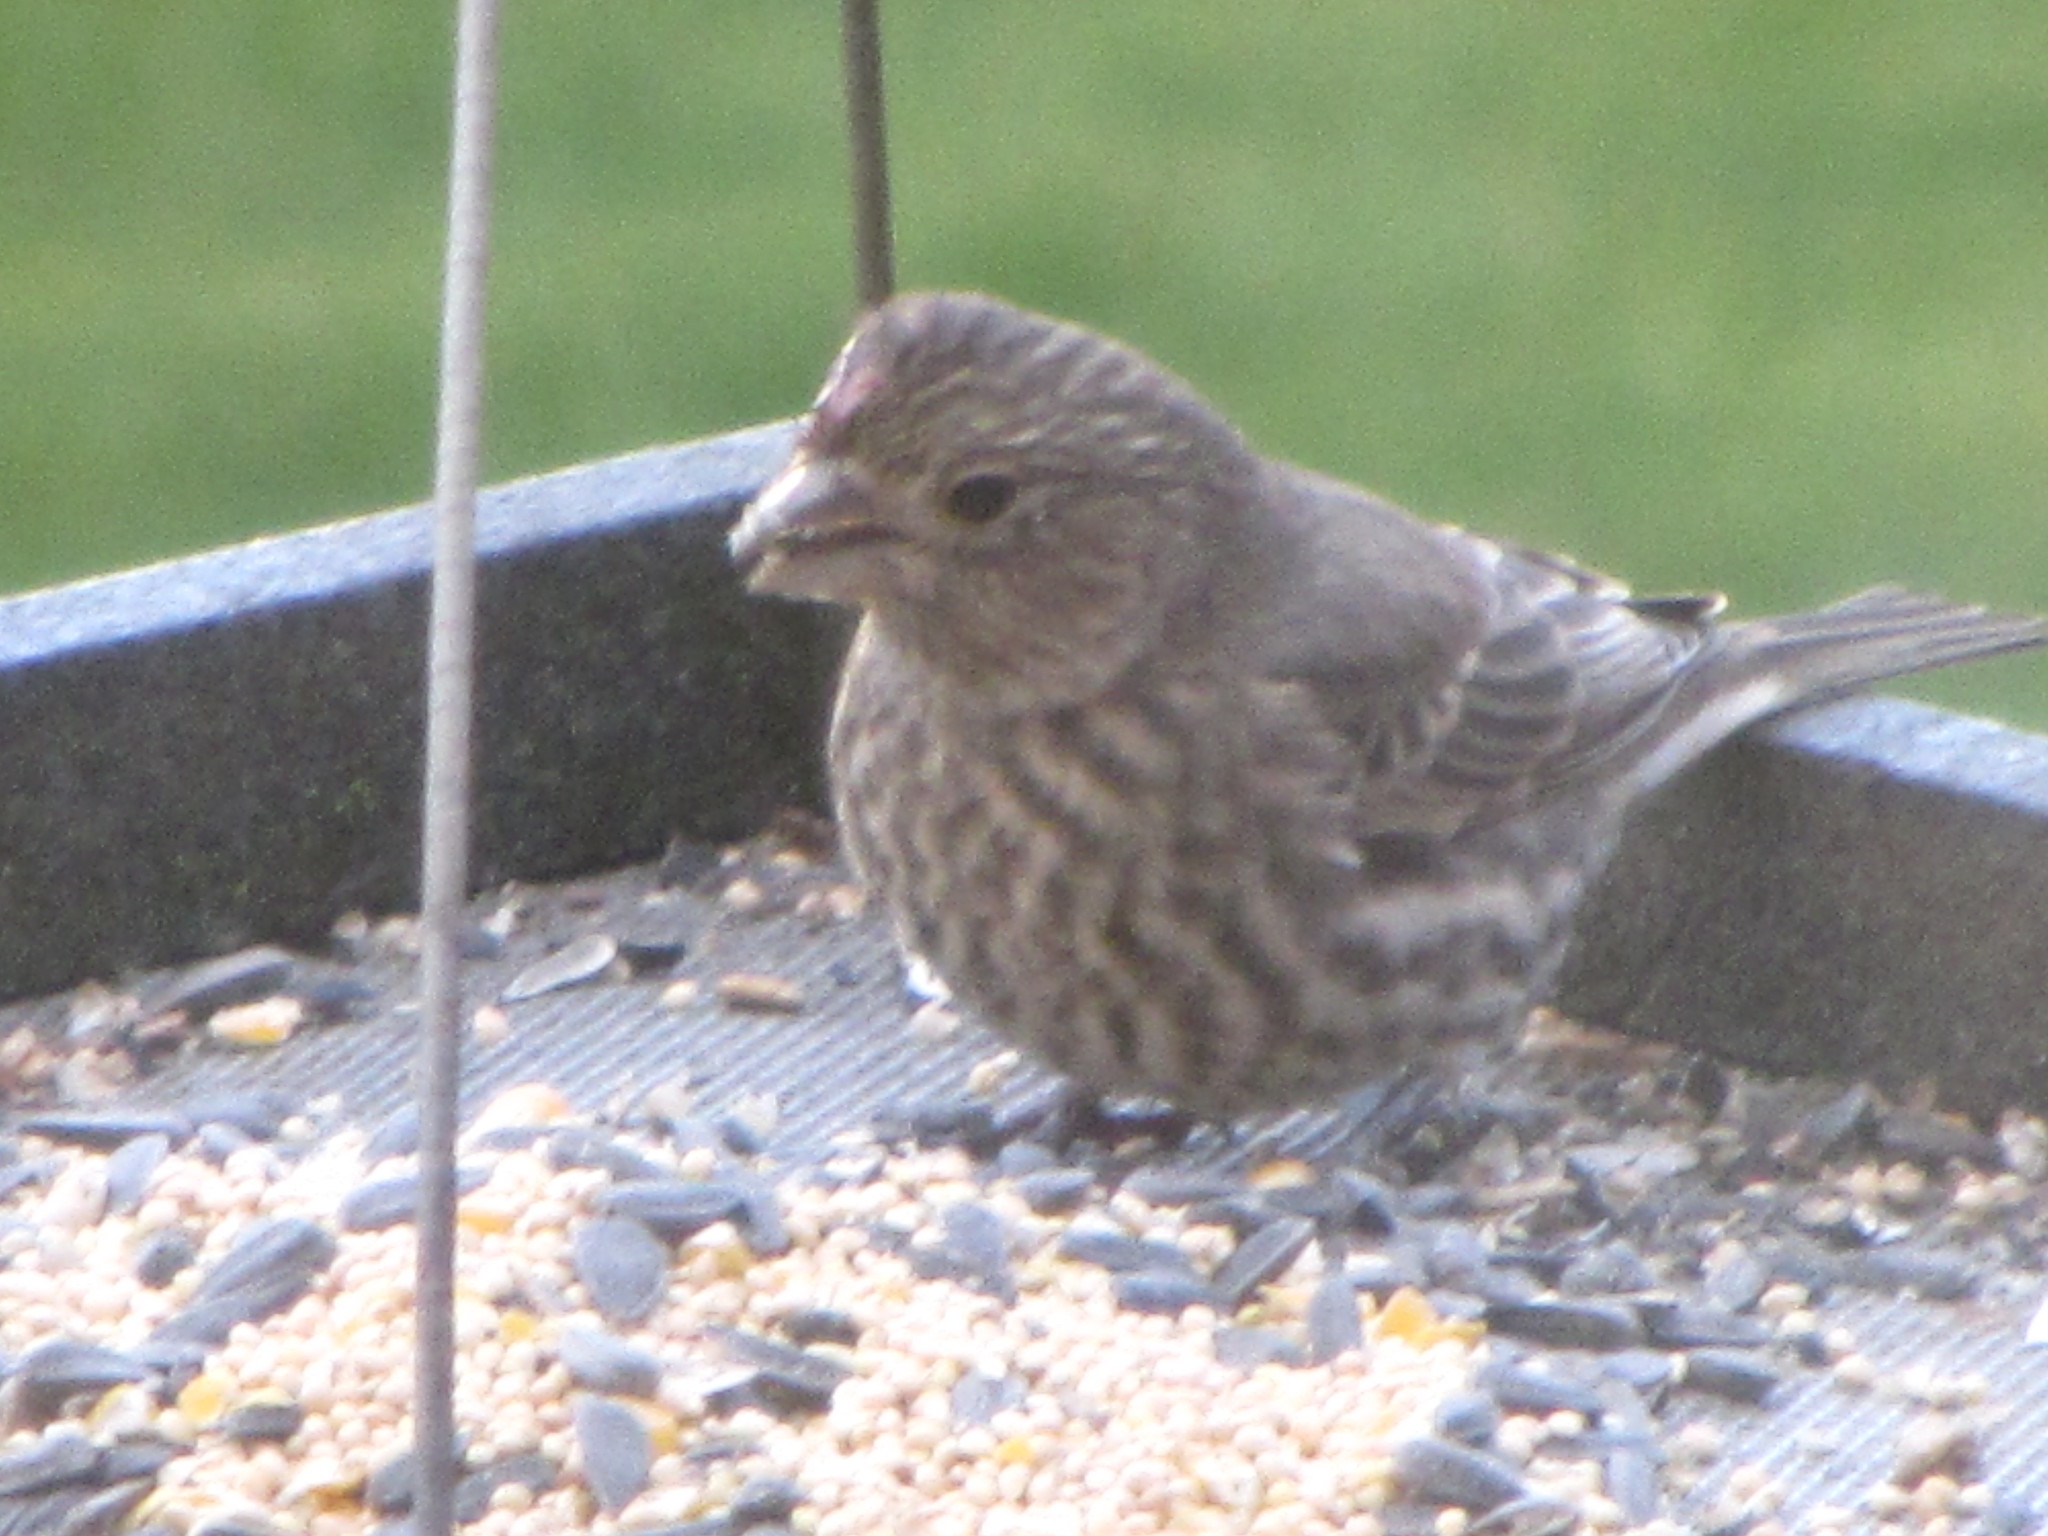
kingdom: Animalia
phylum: Chordata
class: Aves
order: Passeriformes
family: Fringillidae
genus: Haemorhous
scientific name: Haemorhous mexicanus
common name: House finch
